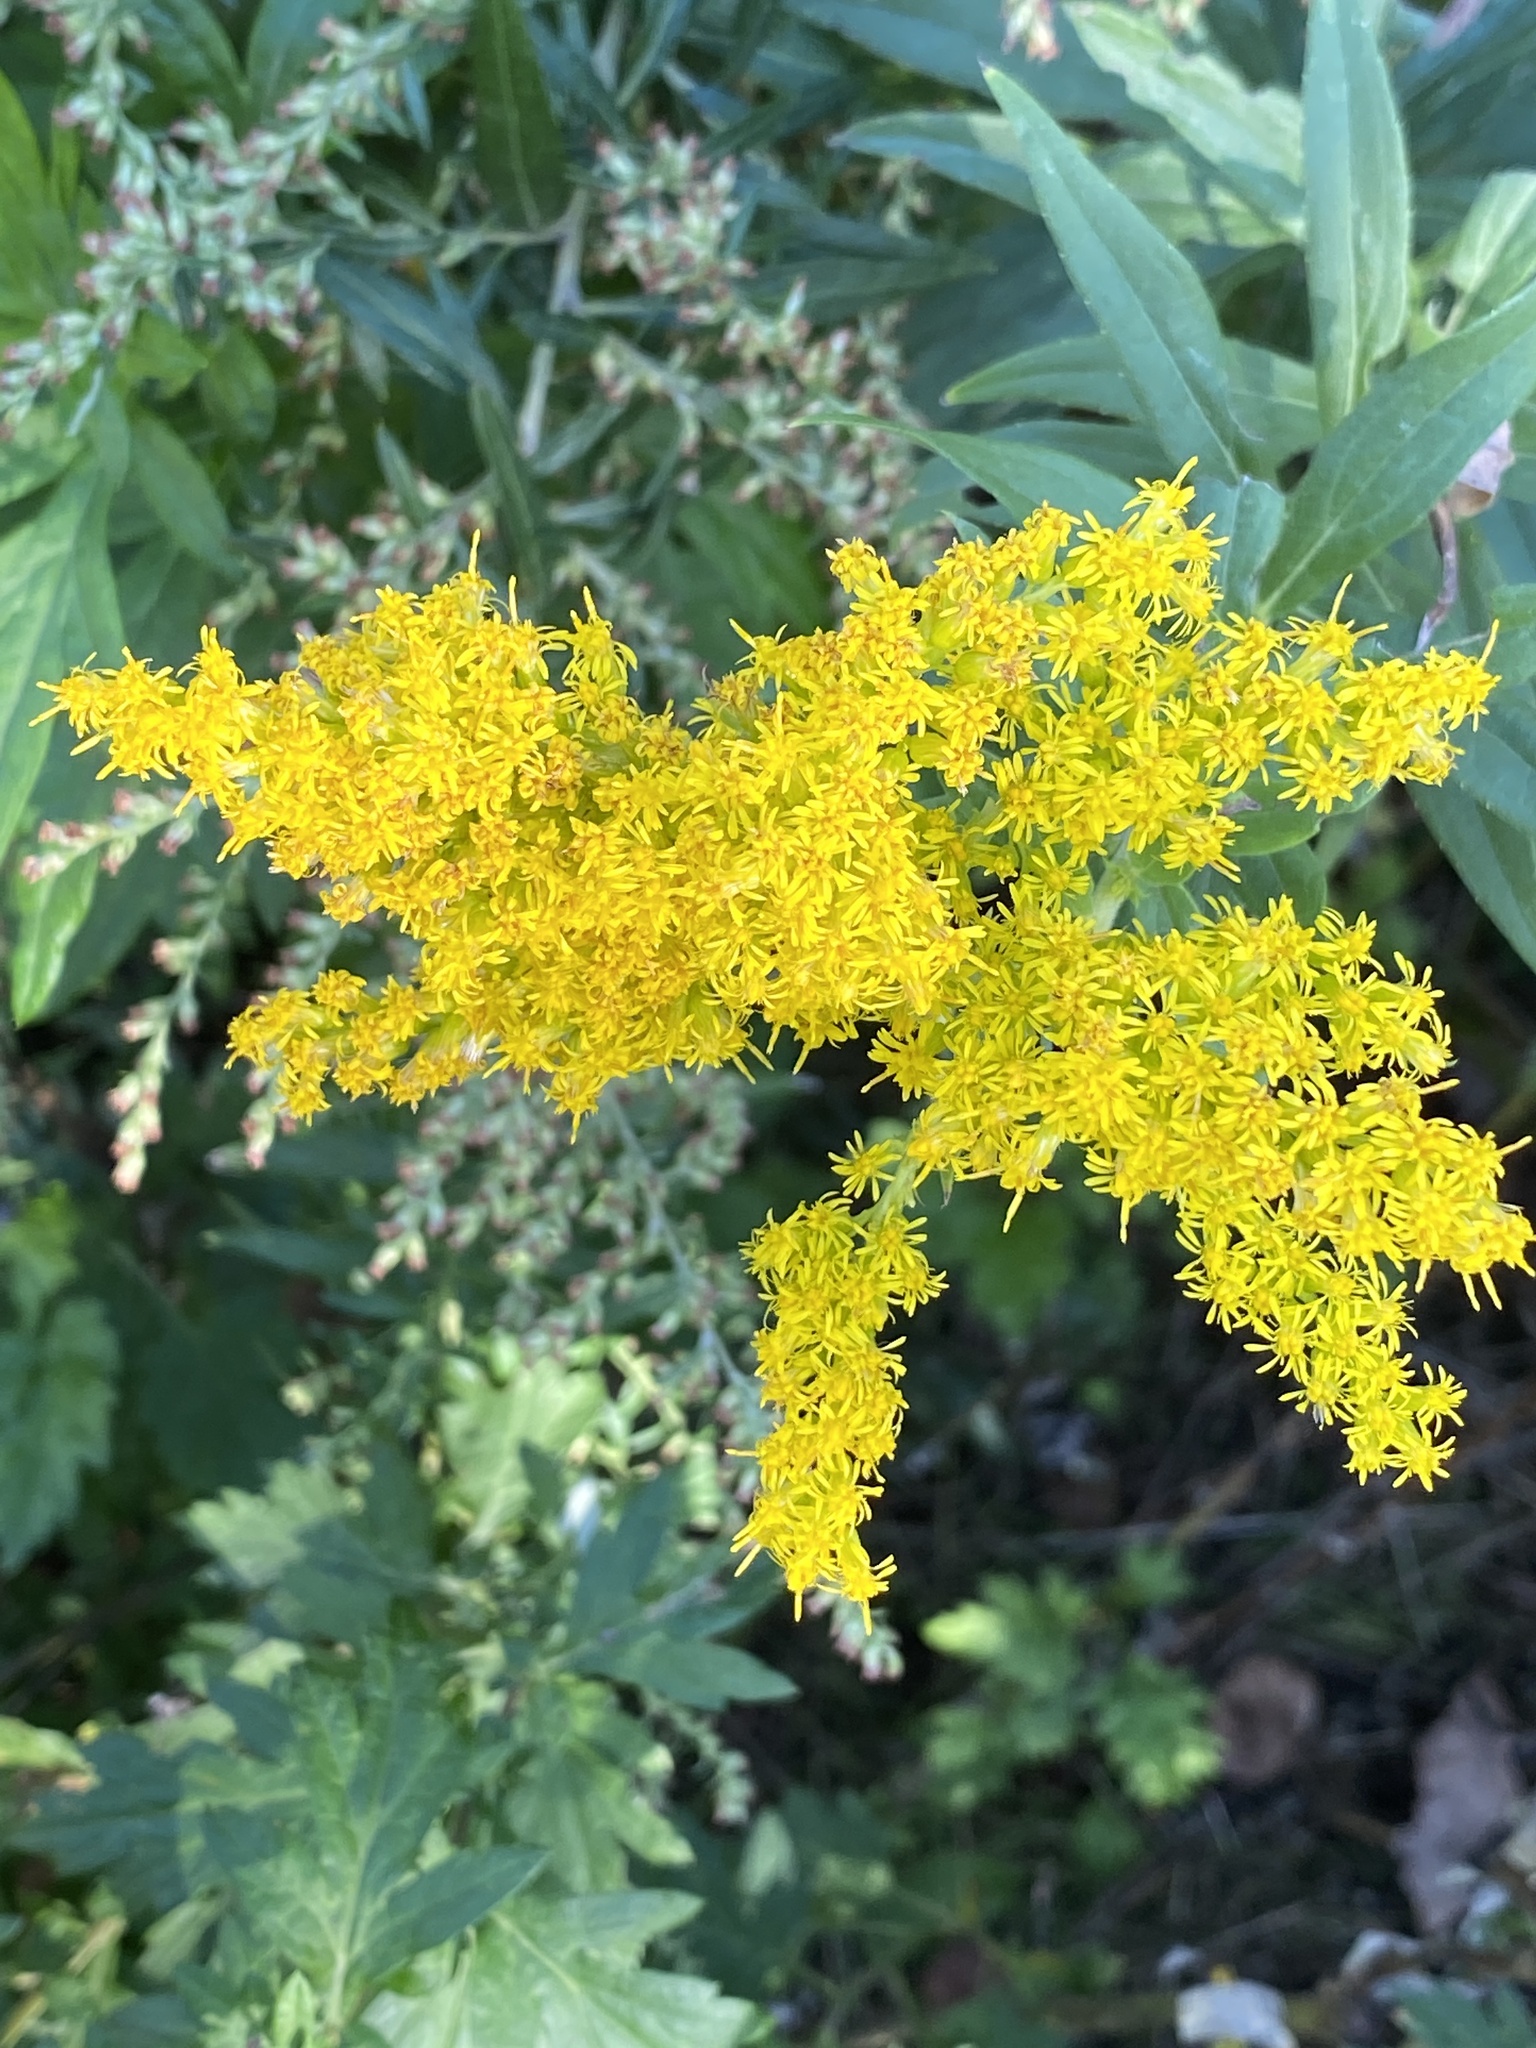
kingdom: Plantae
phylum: Tracheophyta
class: Magnoliopsida
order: Asterales
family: Asteraceae
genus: Solidago
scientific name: Solidago altissima
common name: Late goldenrod
